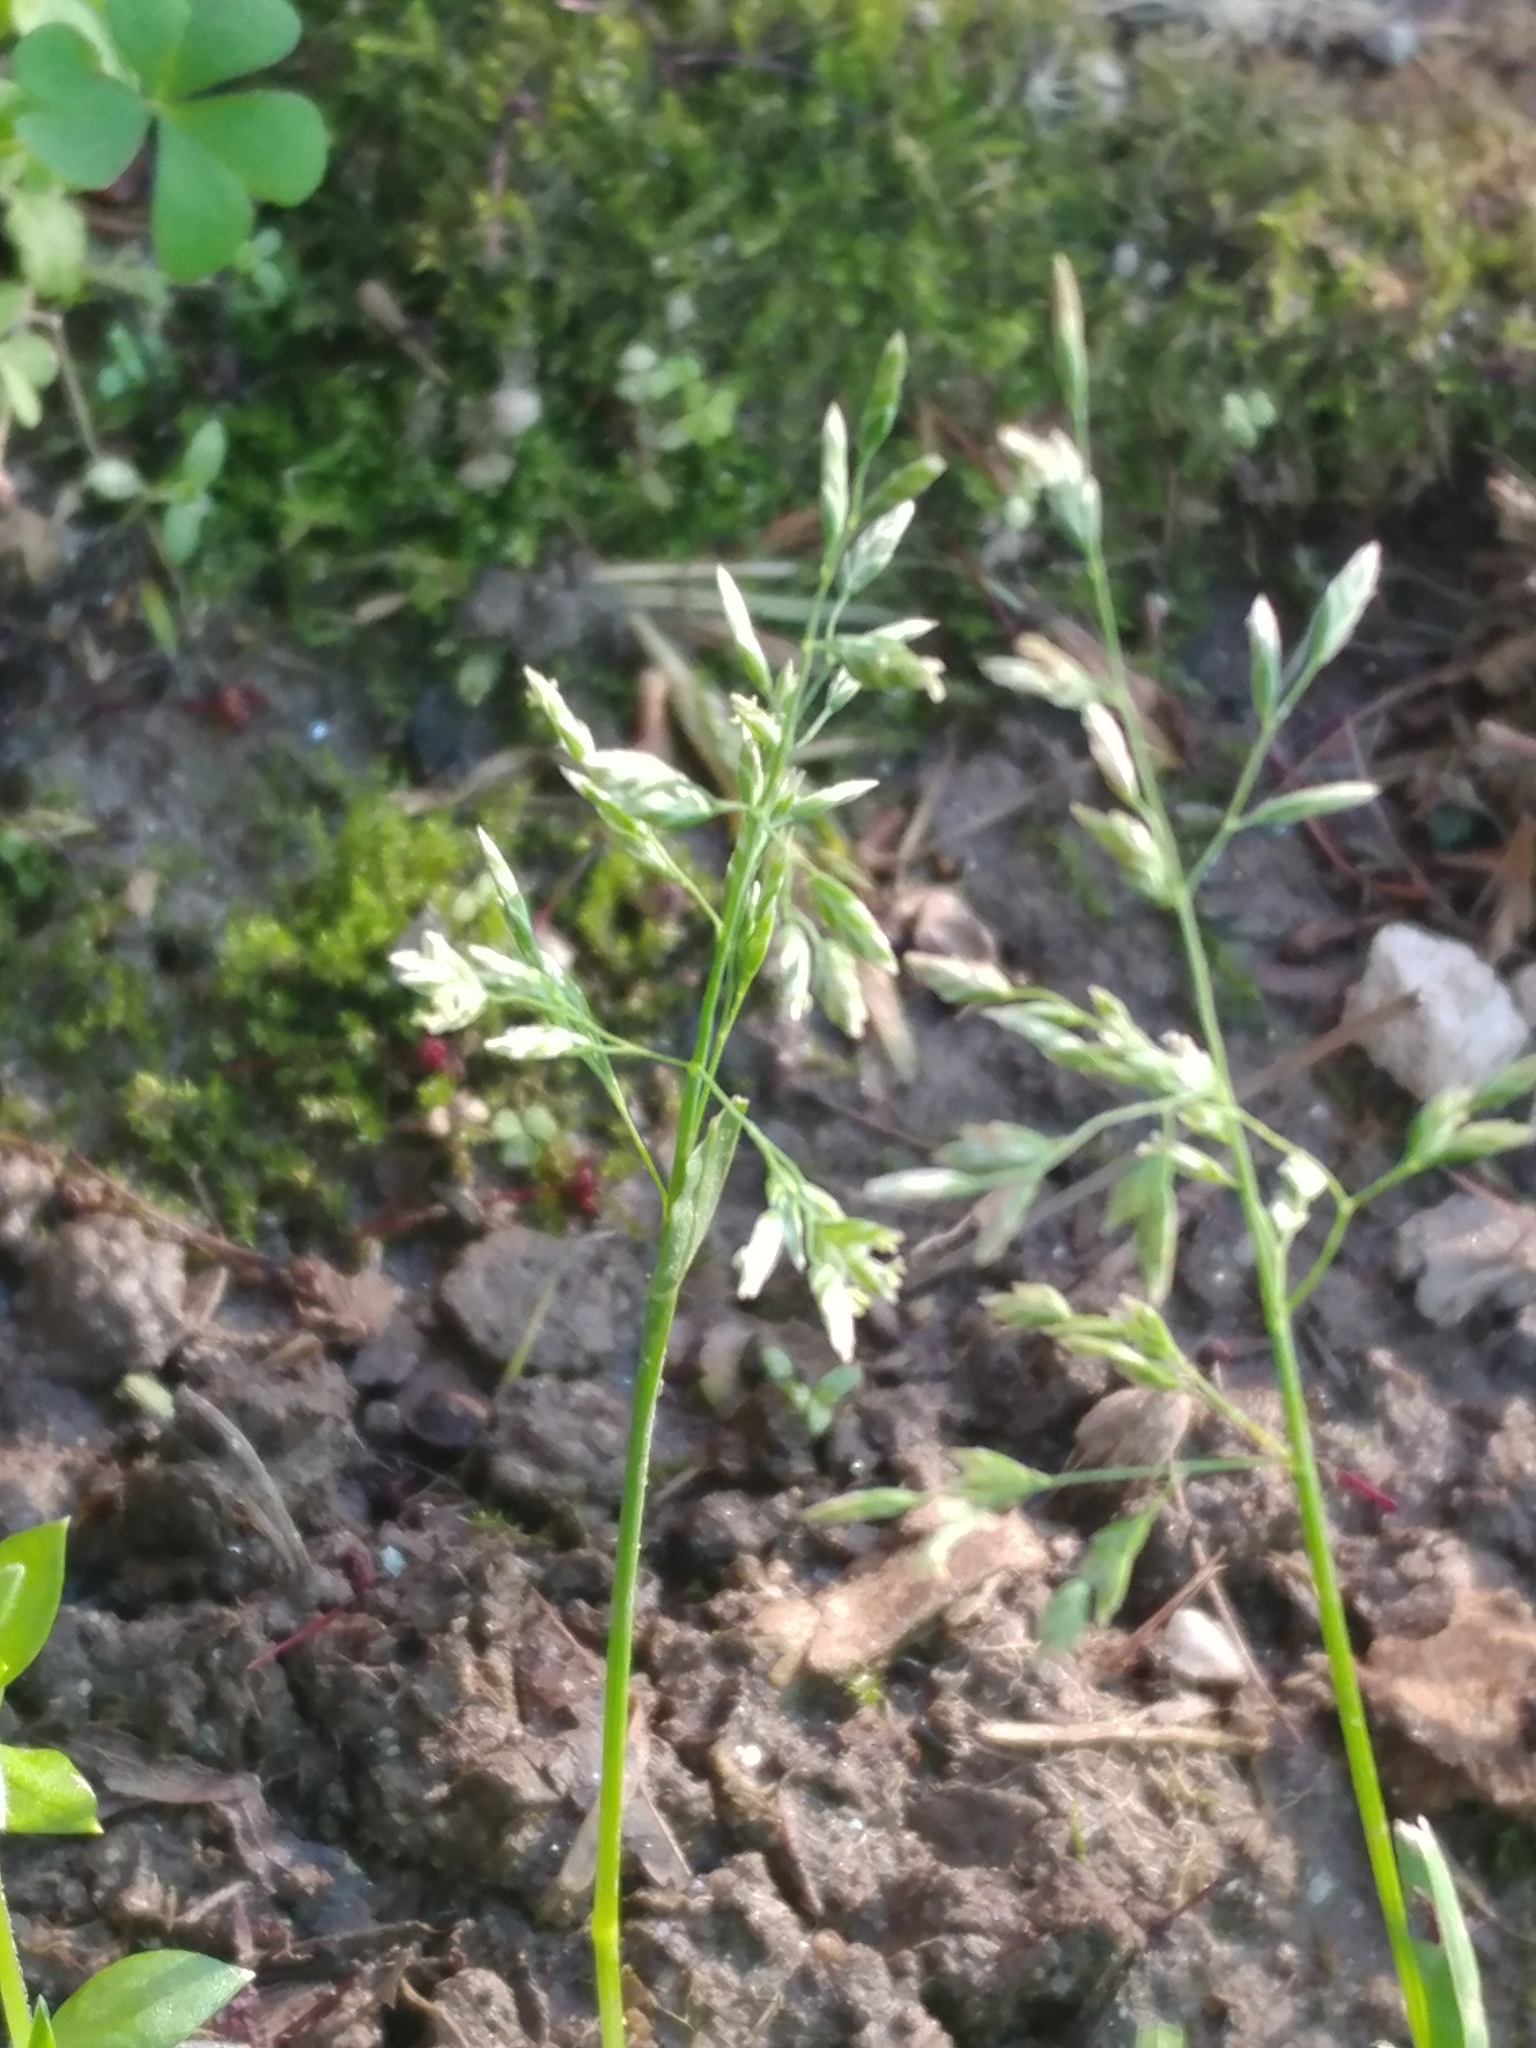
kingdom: Plantae
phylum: Tracheophyta
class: Liliopsida
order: Poales
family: Poaceae
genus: Poa
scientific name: Poa annua
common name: Annual bluegrass
